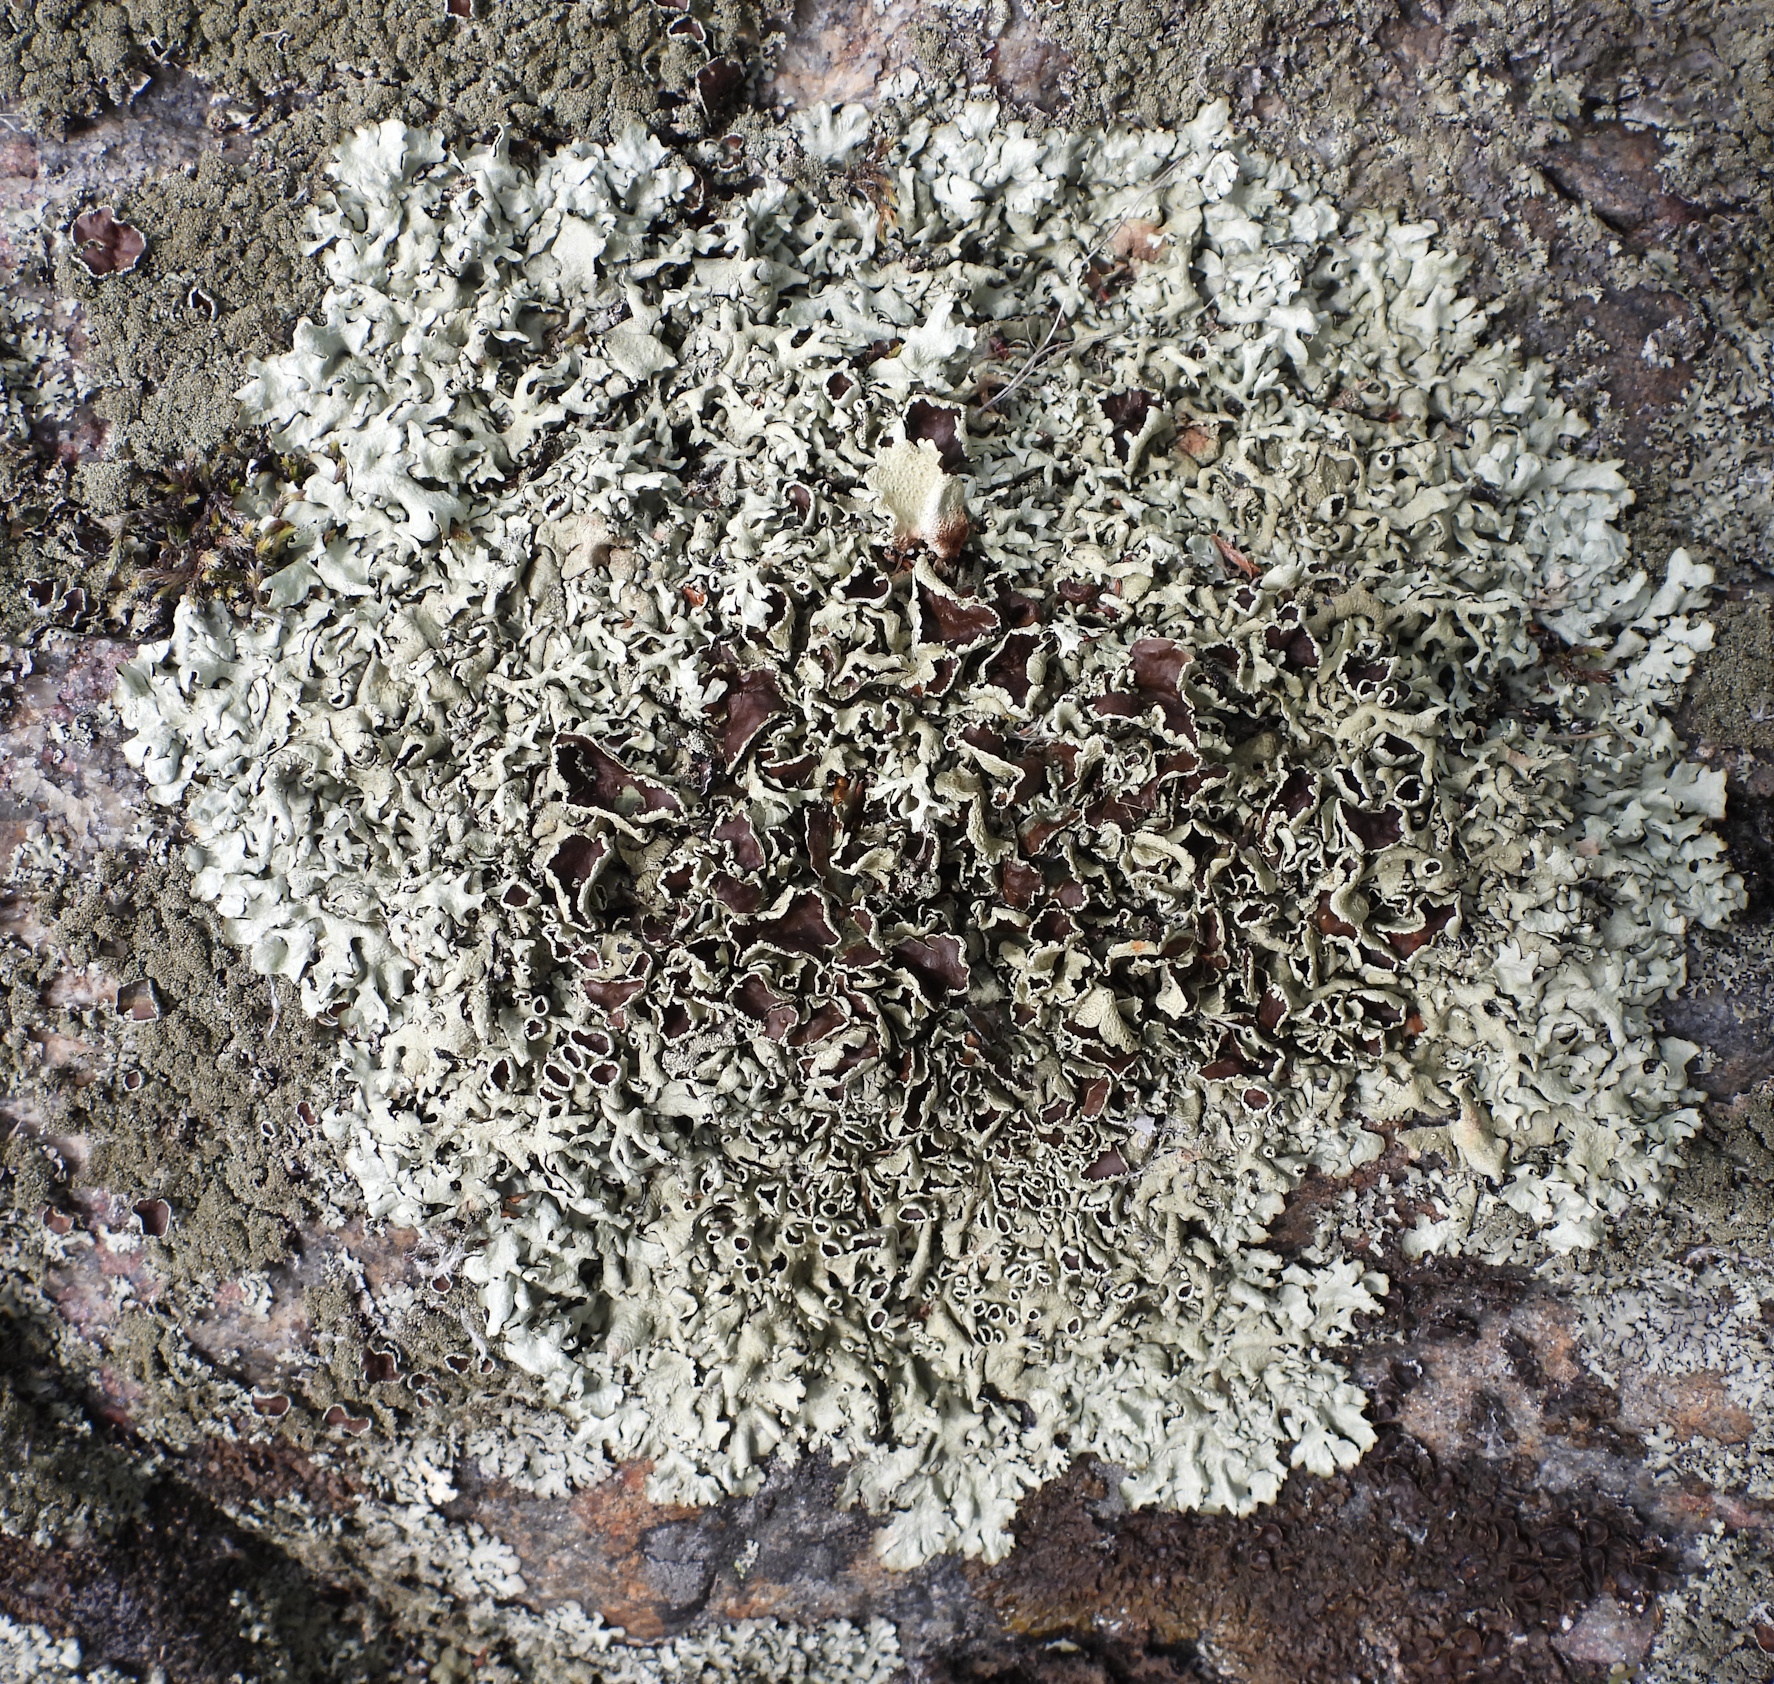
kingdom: Fungi
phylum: Ascomycota
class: Lecanoromycetes
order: Lecanorales
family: Parmeliaceae
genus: Xanthoparmelia
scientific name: Xanthoparmelia stenophylla
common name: Shingled rock shield
